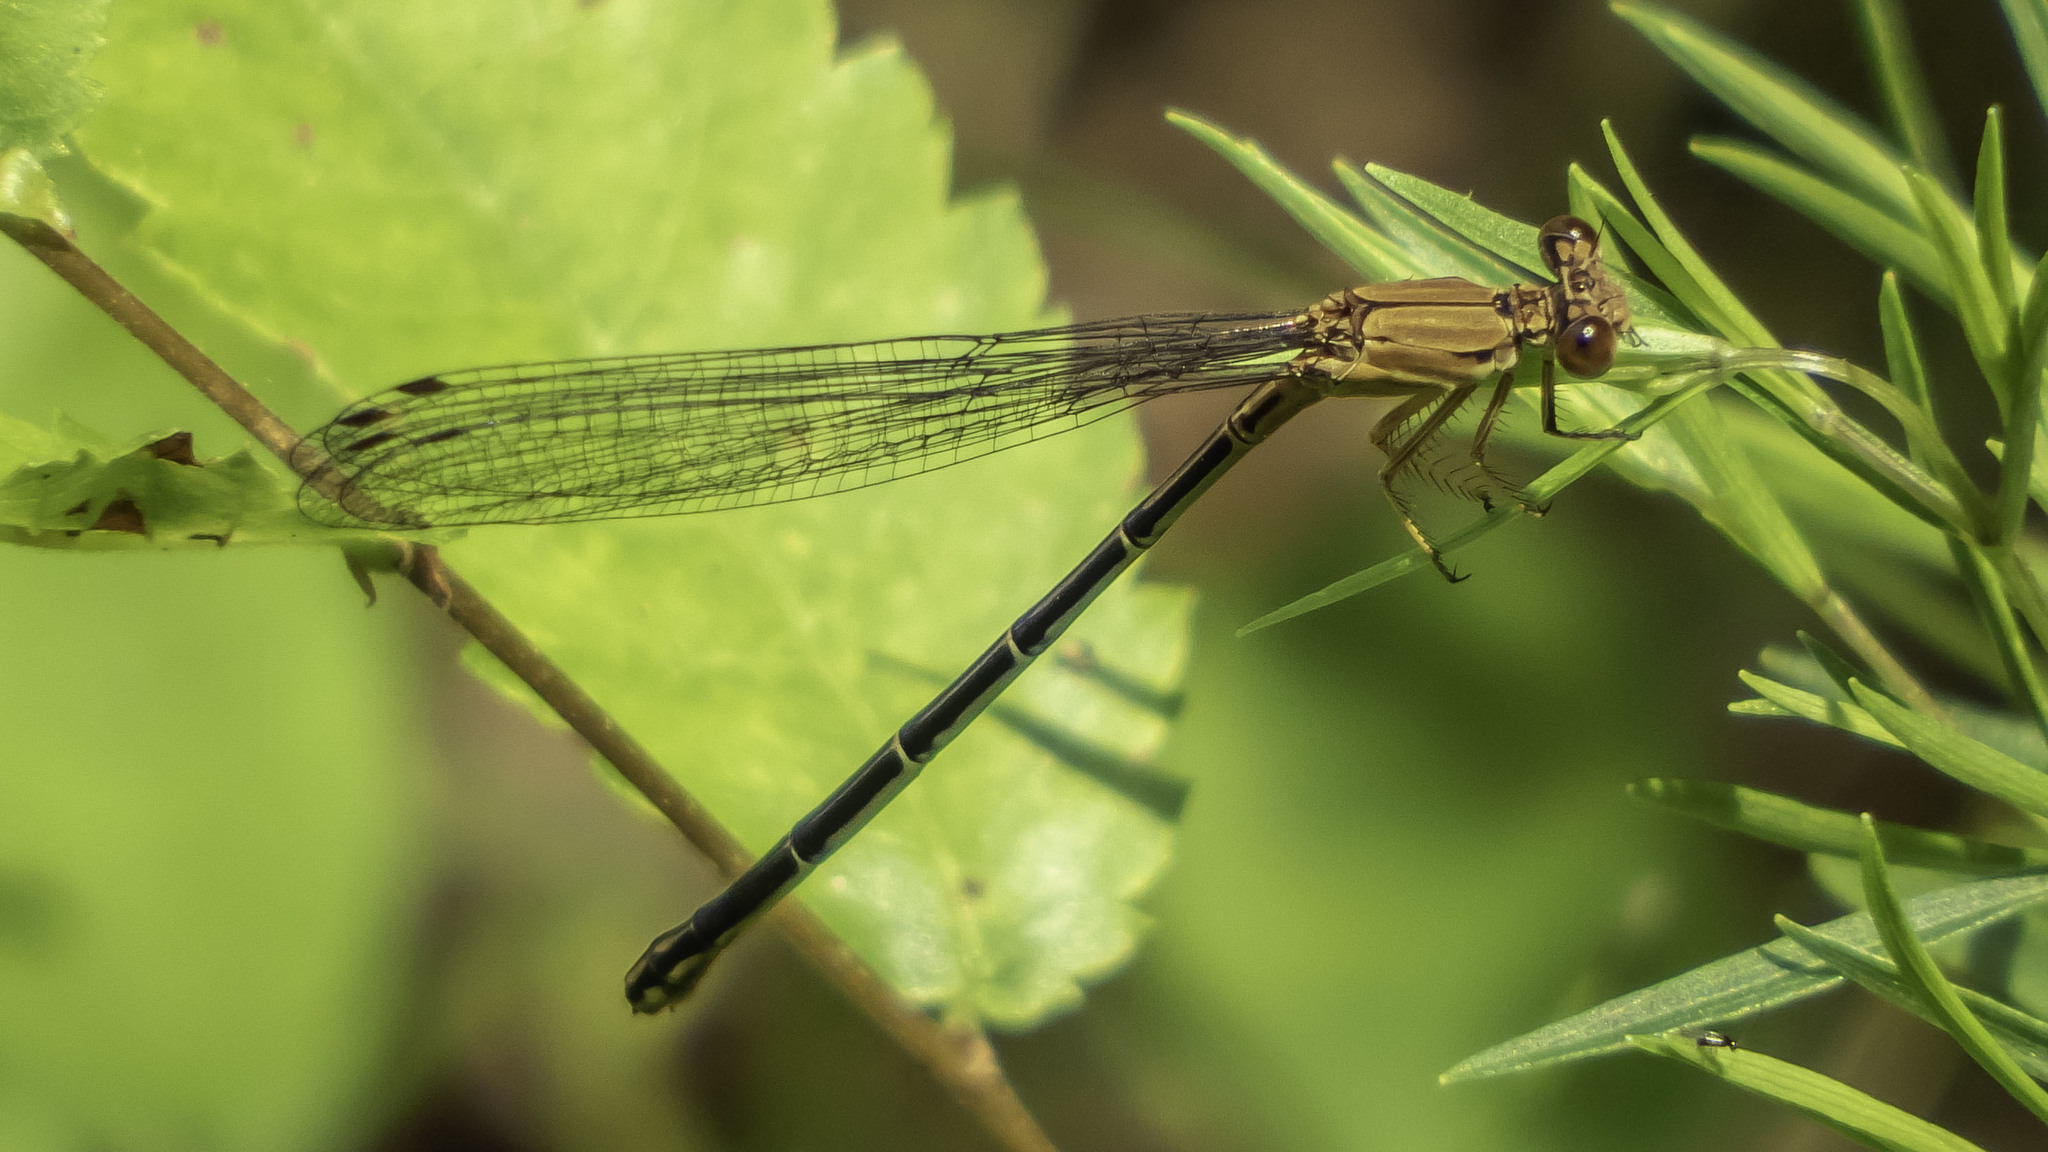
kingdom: Animalia
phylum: Arthropoda
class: Insecta
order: Odonata
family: Coenagrionidae
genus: Argia
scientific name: Argia apicalis
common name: Blue-fronted dancer
